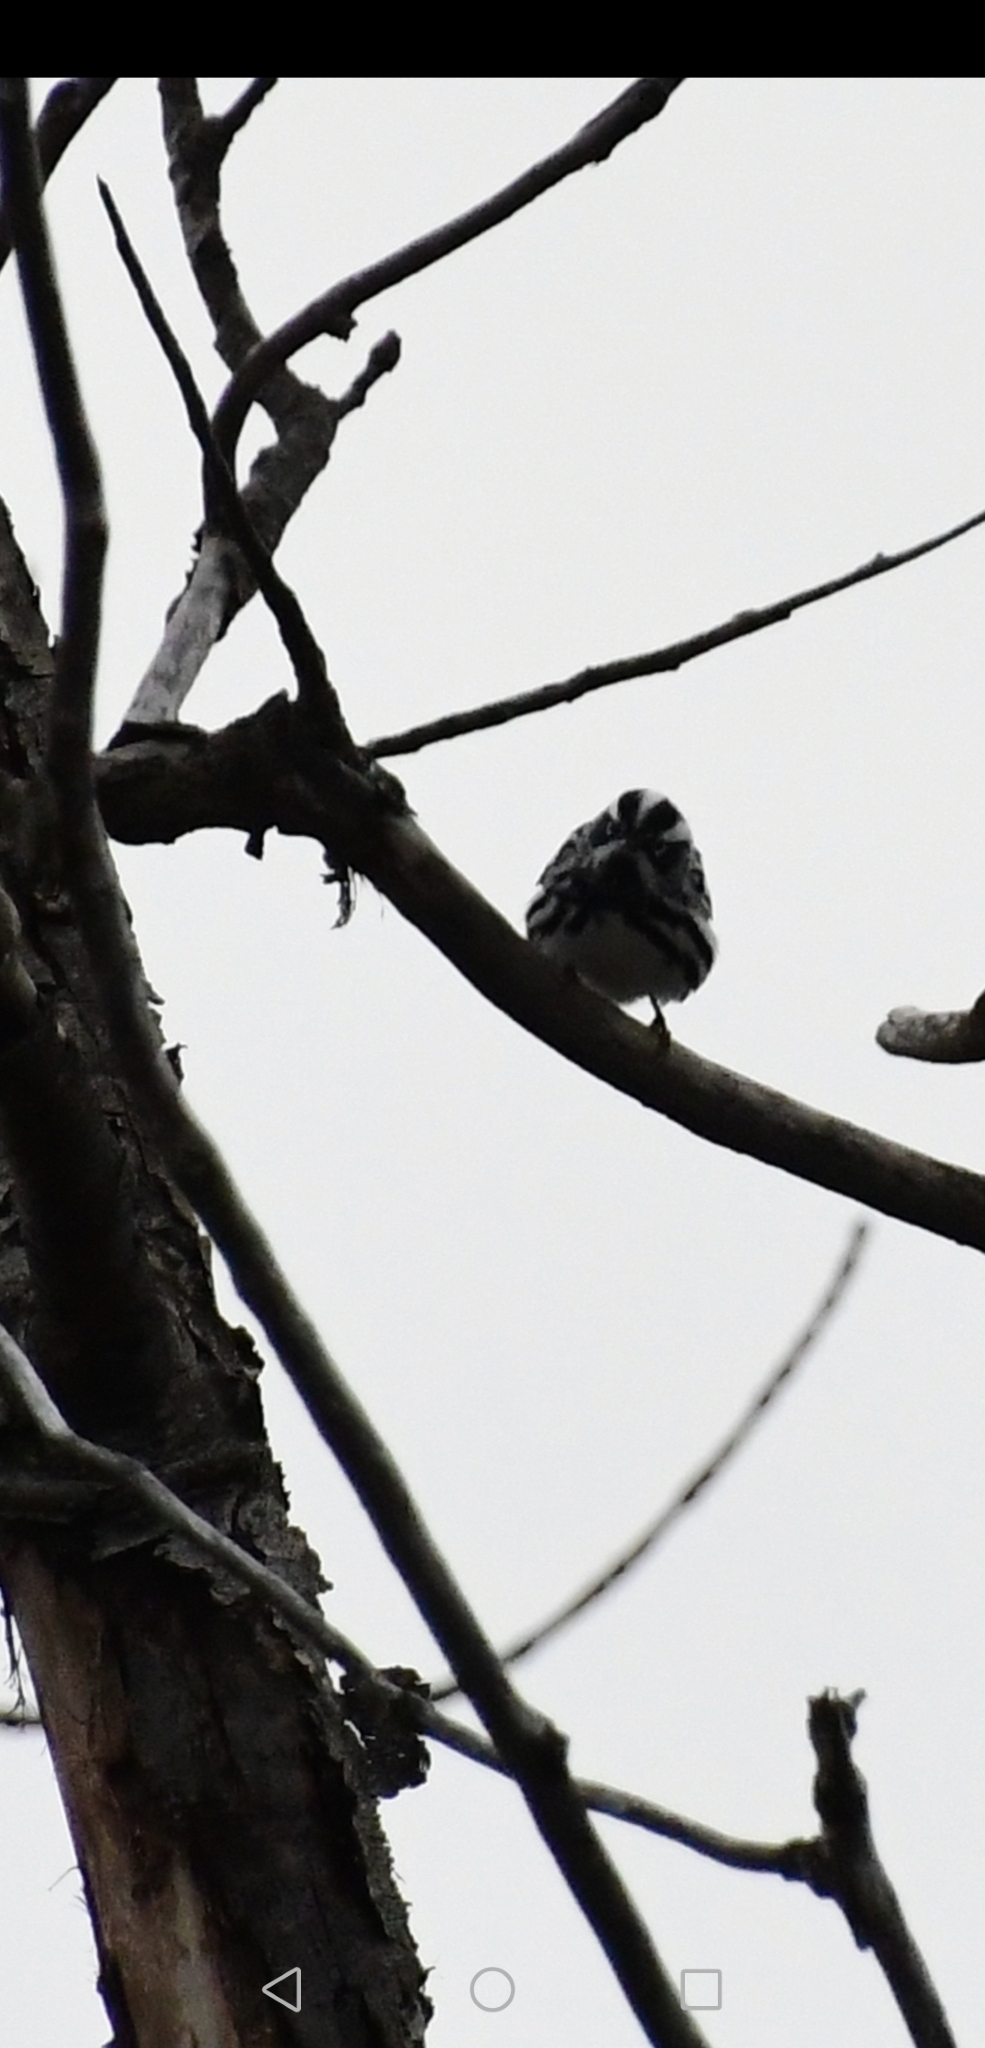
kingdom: Animalia
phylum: Chordata
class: Aves
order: Passeriformes
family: Parulidae
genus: Mniotilta
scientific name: Mniotilta varia
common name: Black-and-white warbler
